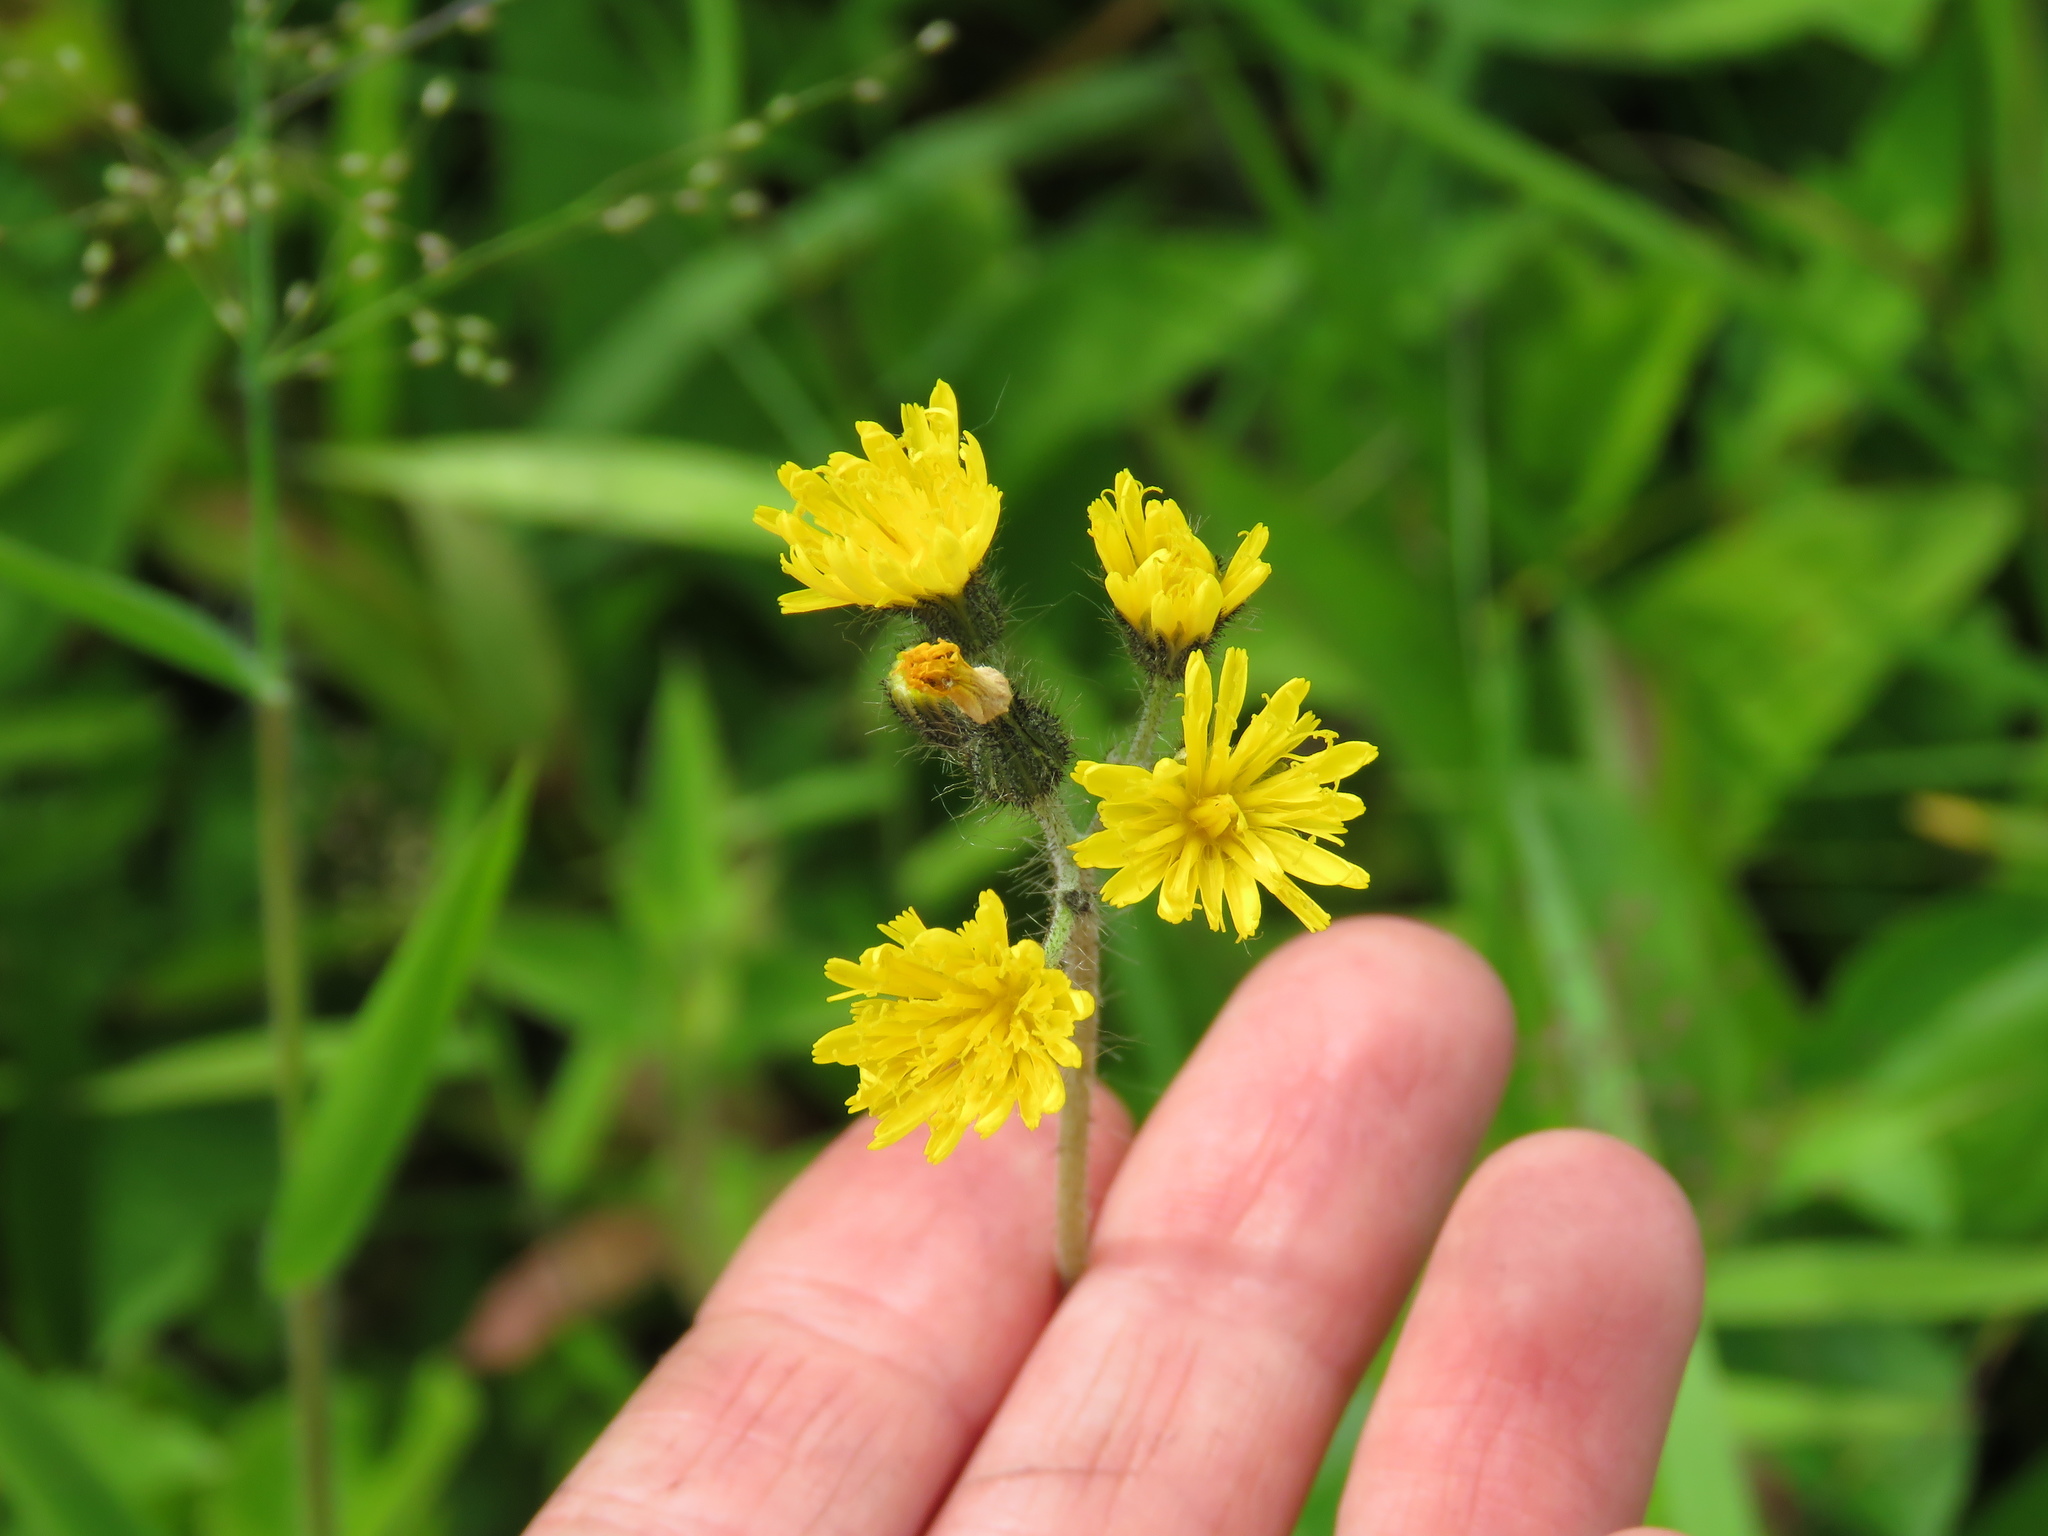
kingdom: Plantae
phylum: Tracheophyta
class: Magnoliopsida
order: Asterales
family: Asteraceae
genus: Pilosella
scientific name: Pilosella caespitosa
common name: Yellow fox-and-cubs
